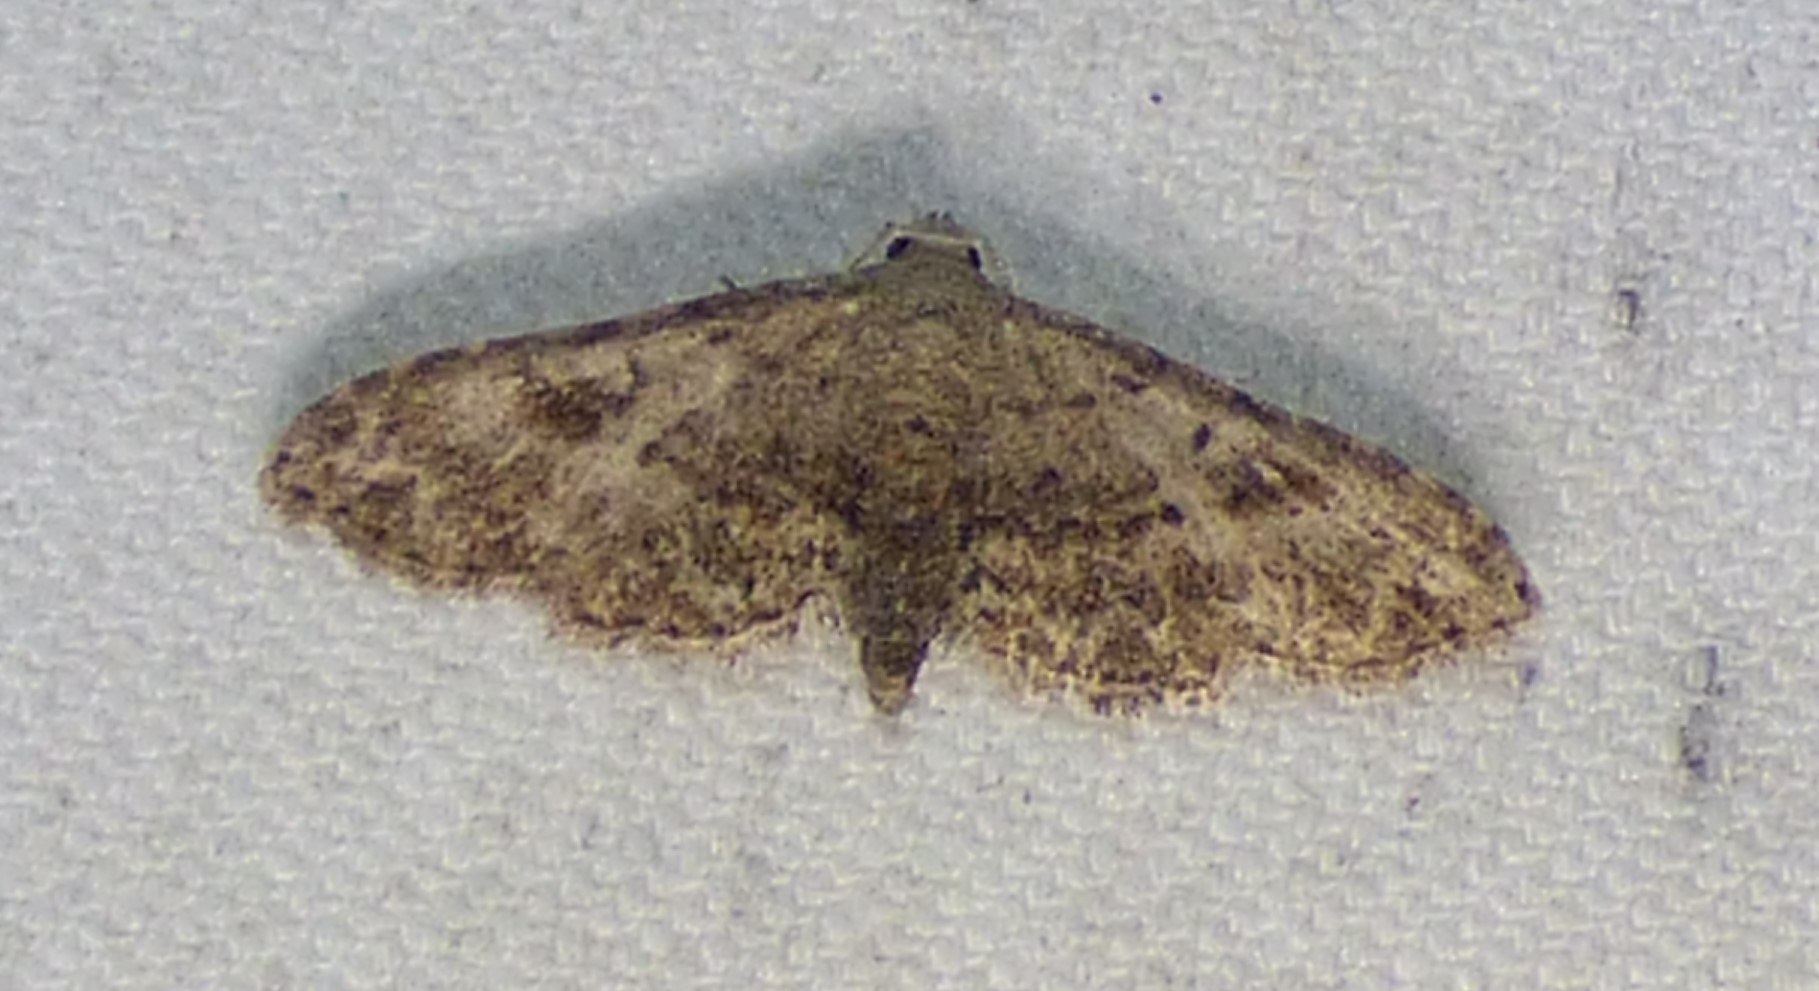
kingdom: Animalia
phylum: Arthropoda
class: Insecta
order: Lepidoptera
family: Erebidae
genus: Sigela
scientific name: Sigela brauneata
